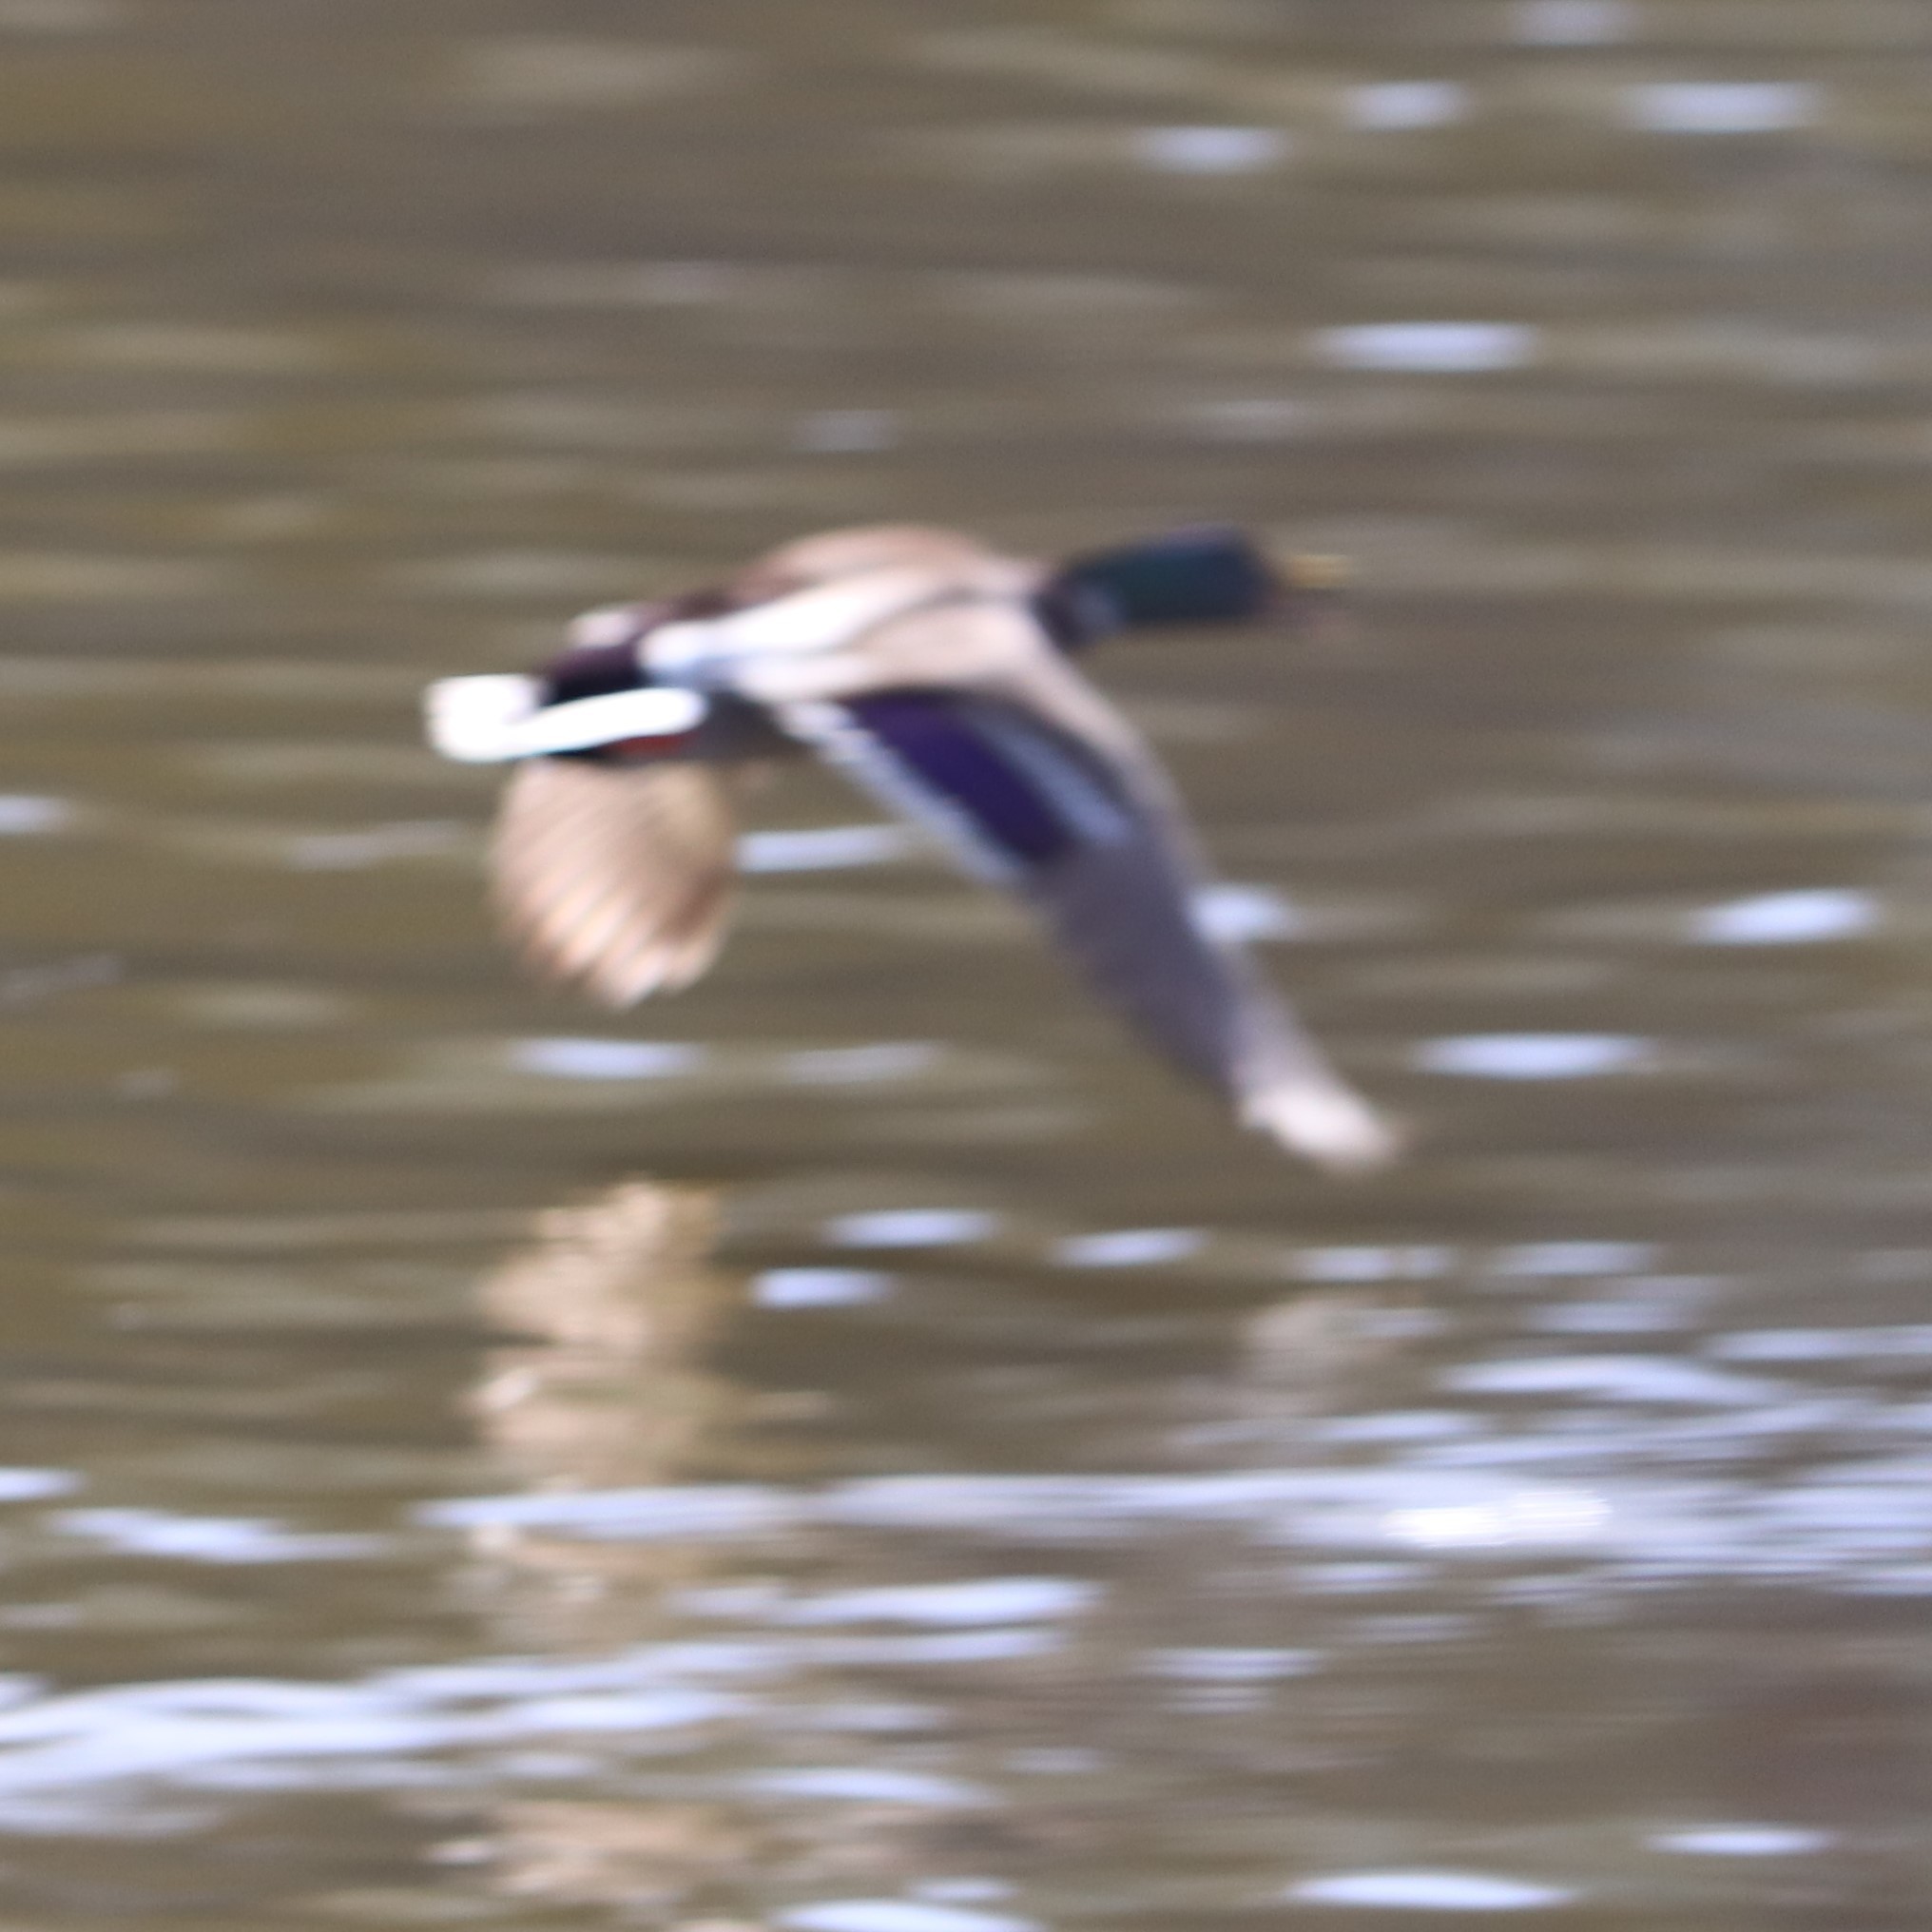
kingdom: Animalia
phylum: Chordata
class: Aves
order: Anseriformes
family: Anatidae
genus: Anas
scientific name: Anas platyrhynchos
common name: Mallard
